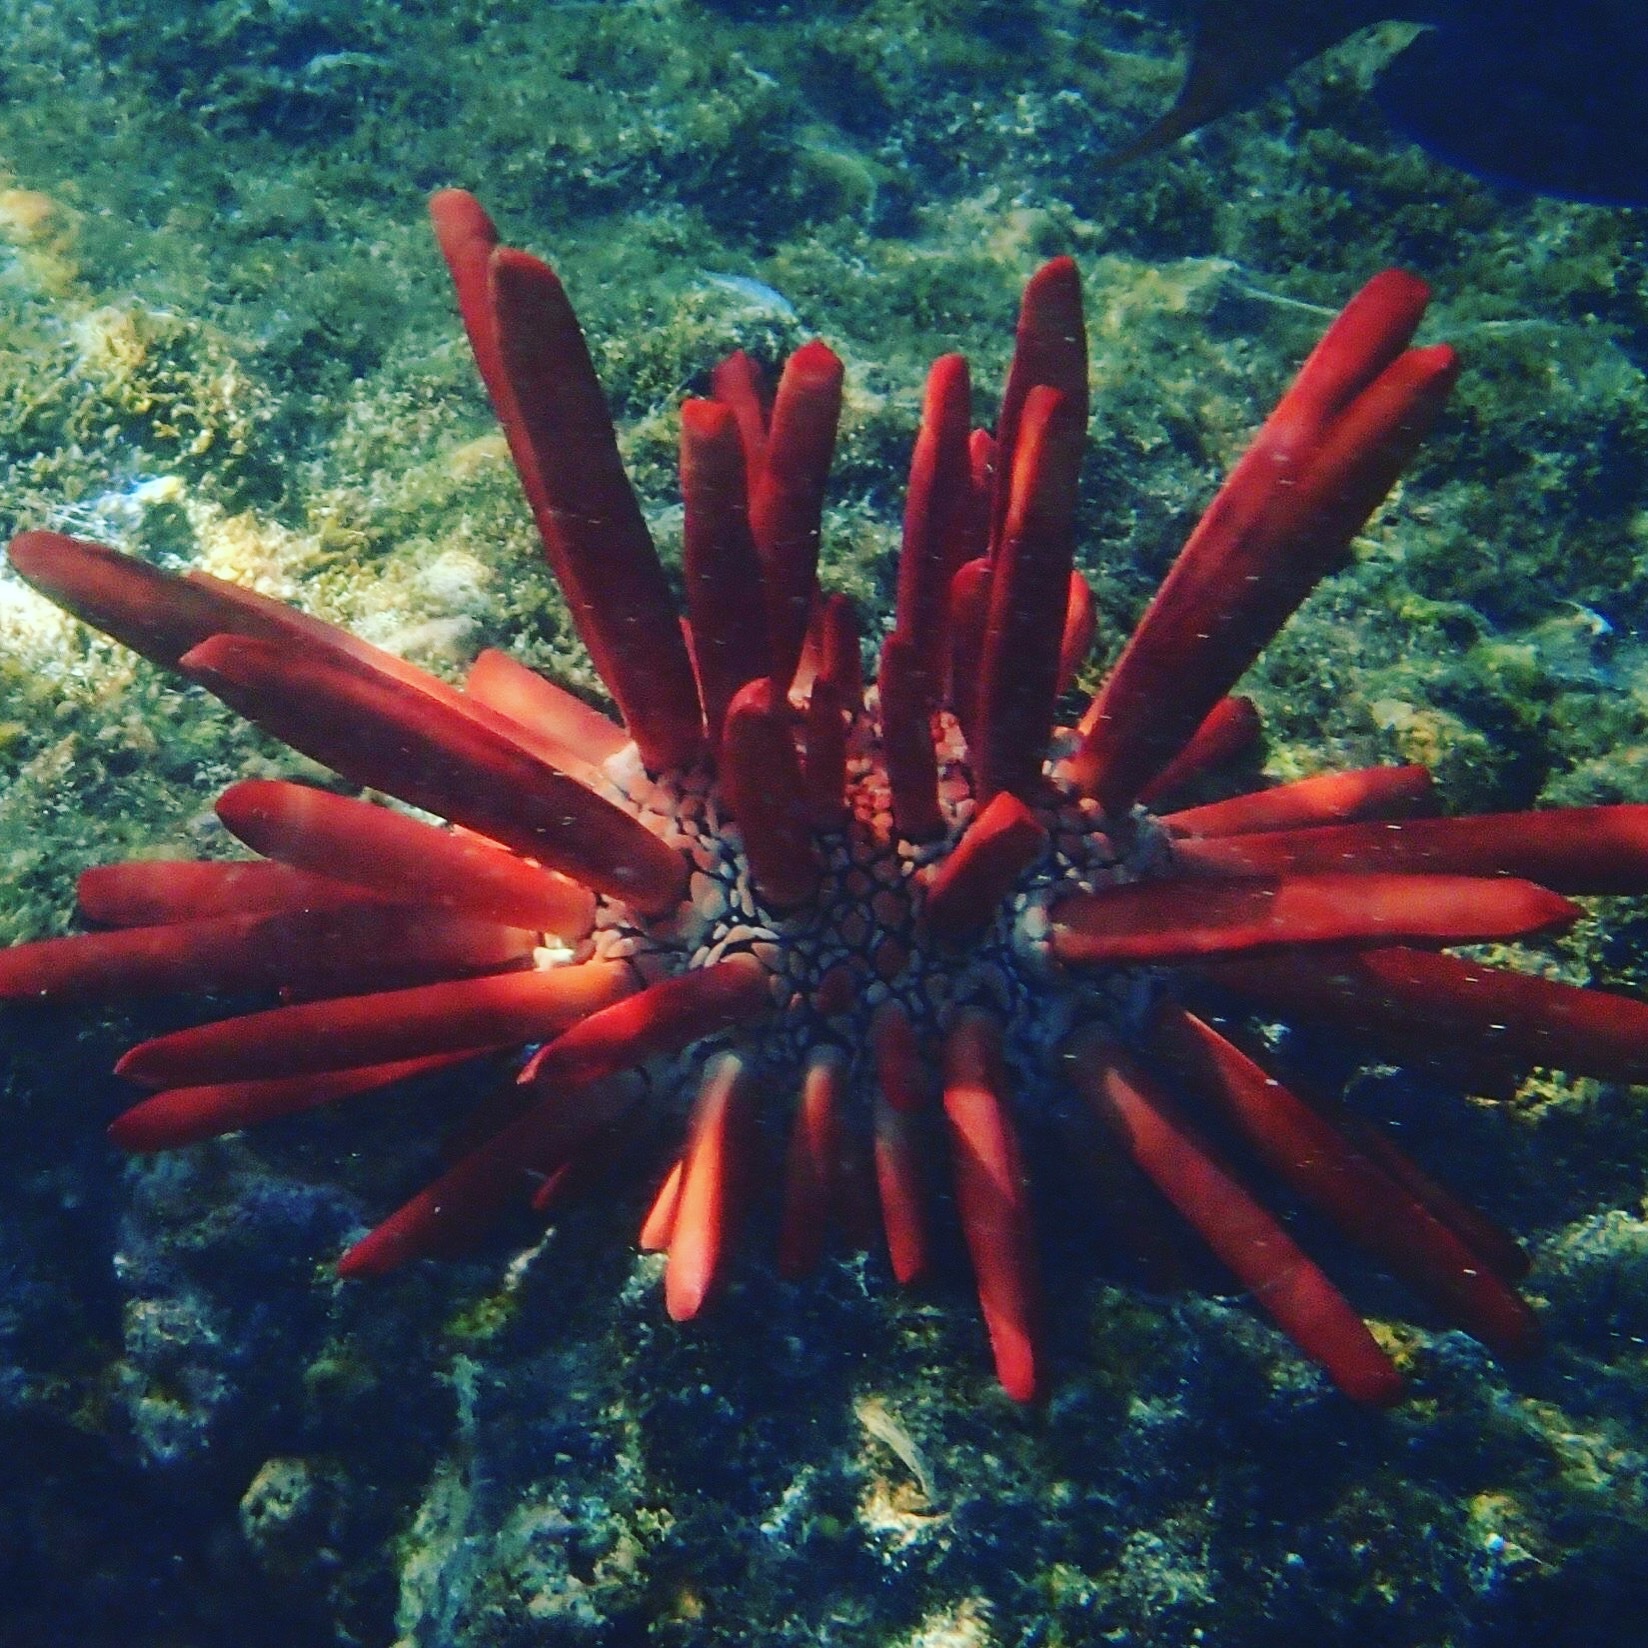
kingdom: Animalia
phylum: Echinodermata
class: Echinoidea
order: Camarodonta
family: Echinometridae
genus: Heterocentrotus
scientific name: Heterocentrotus mamillatus
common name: Slate pencil urchin
